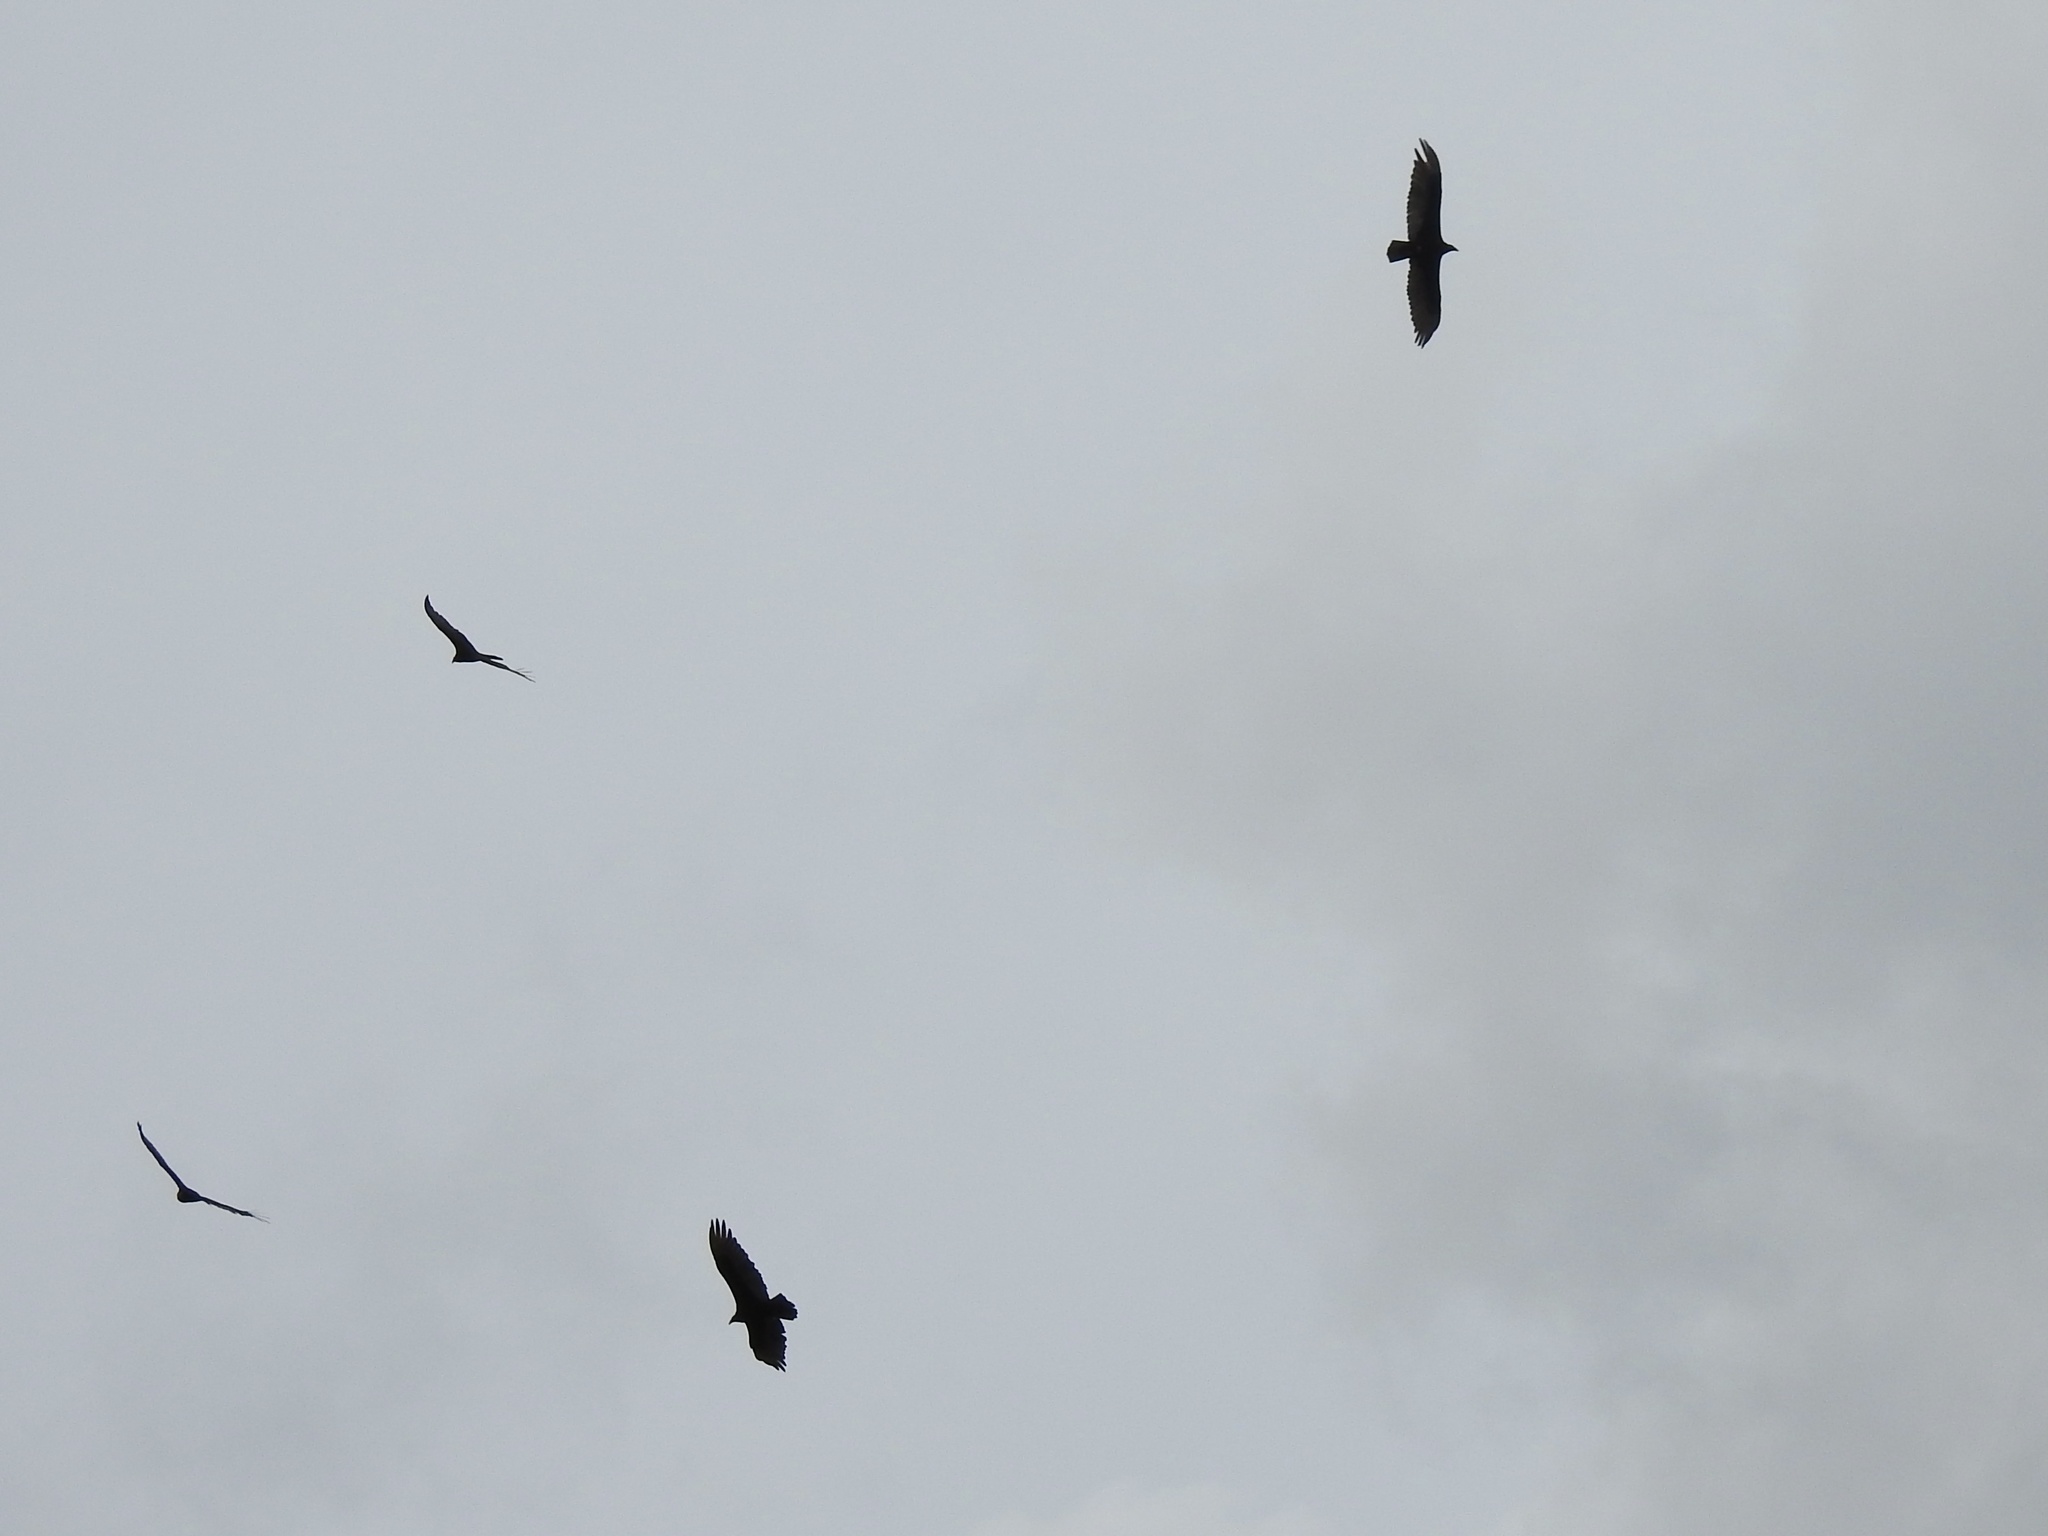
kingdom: Animalia
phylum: Chordata
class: Aves
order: Accipitriformes
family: Cathartidae
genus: Cathartes
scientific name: Cathartes aura
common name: Turkey vulture
